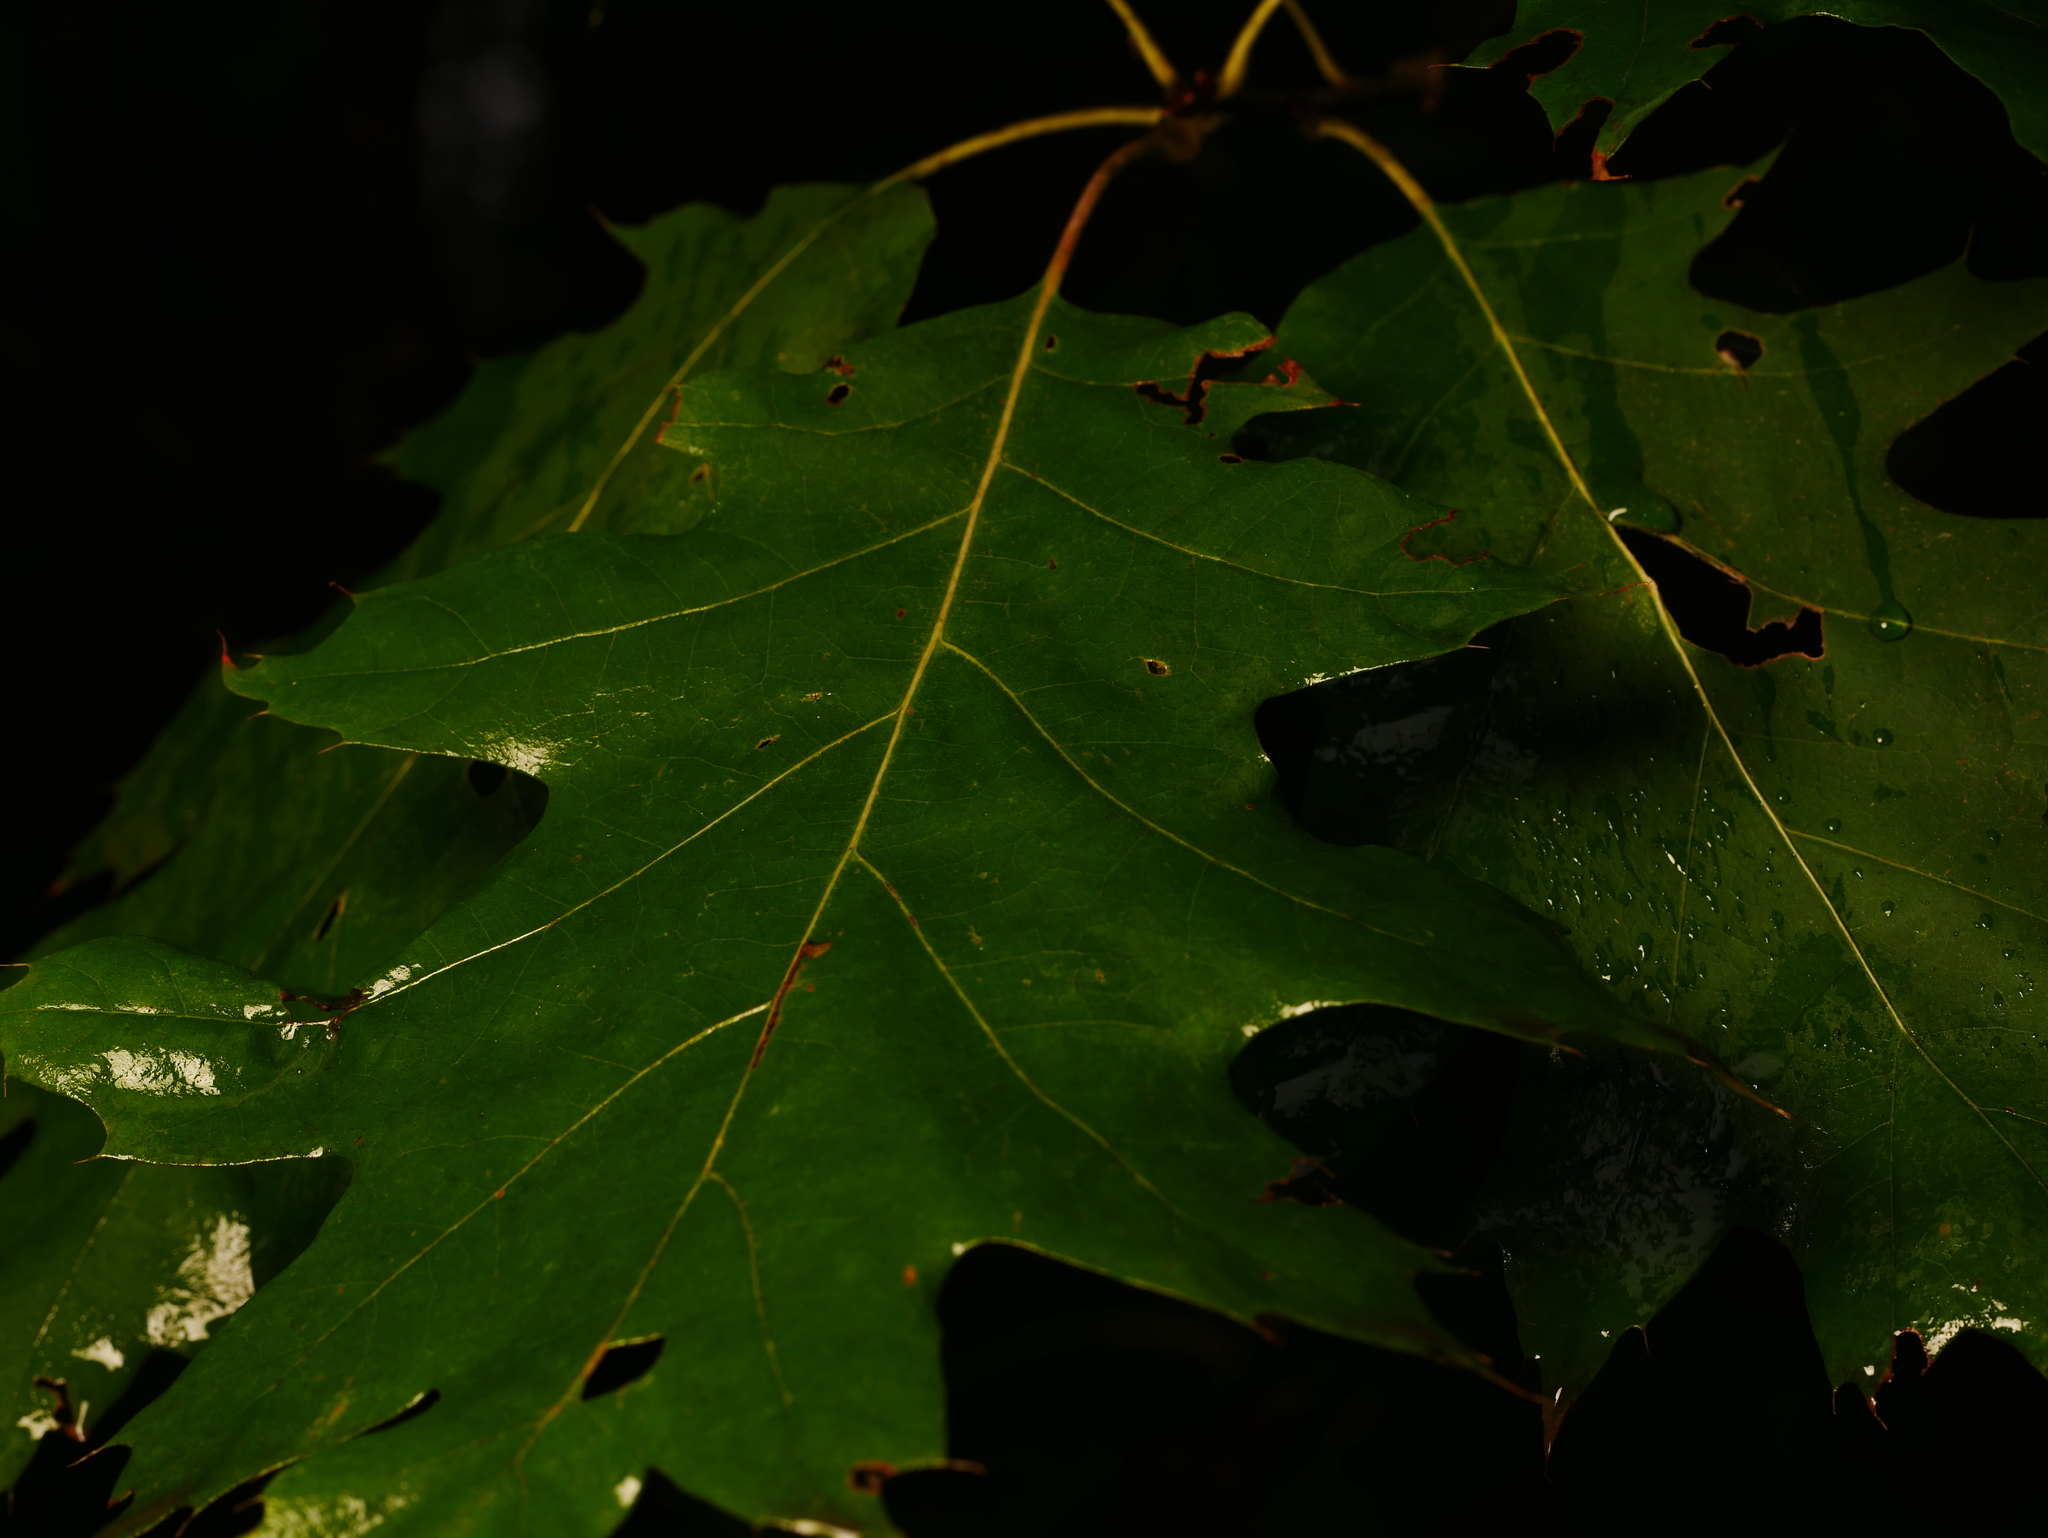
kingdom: Plantae
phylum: Tracheophyta
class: Magnoliopsida
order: Fagales
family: Fagaceae
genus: Quercus
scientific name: Quercus rubra
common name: Red oak
